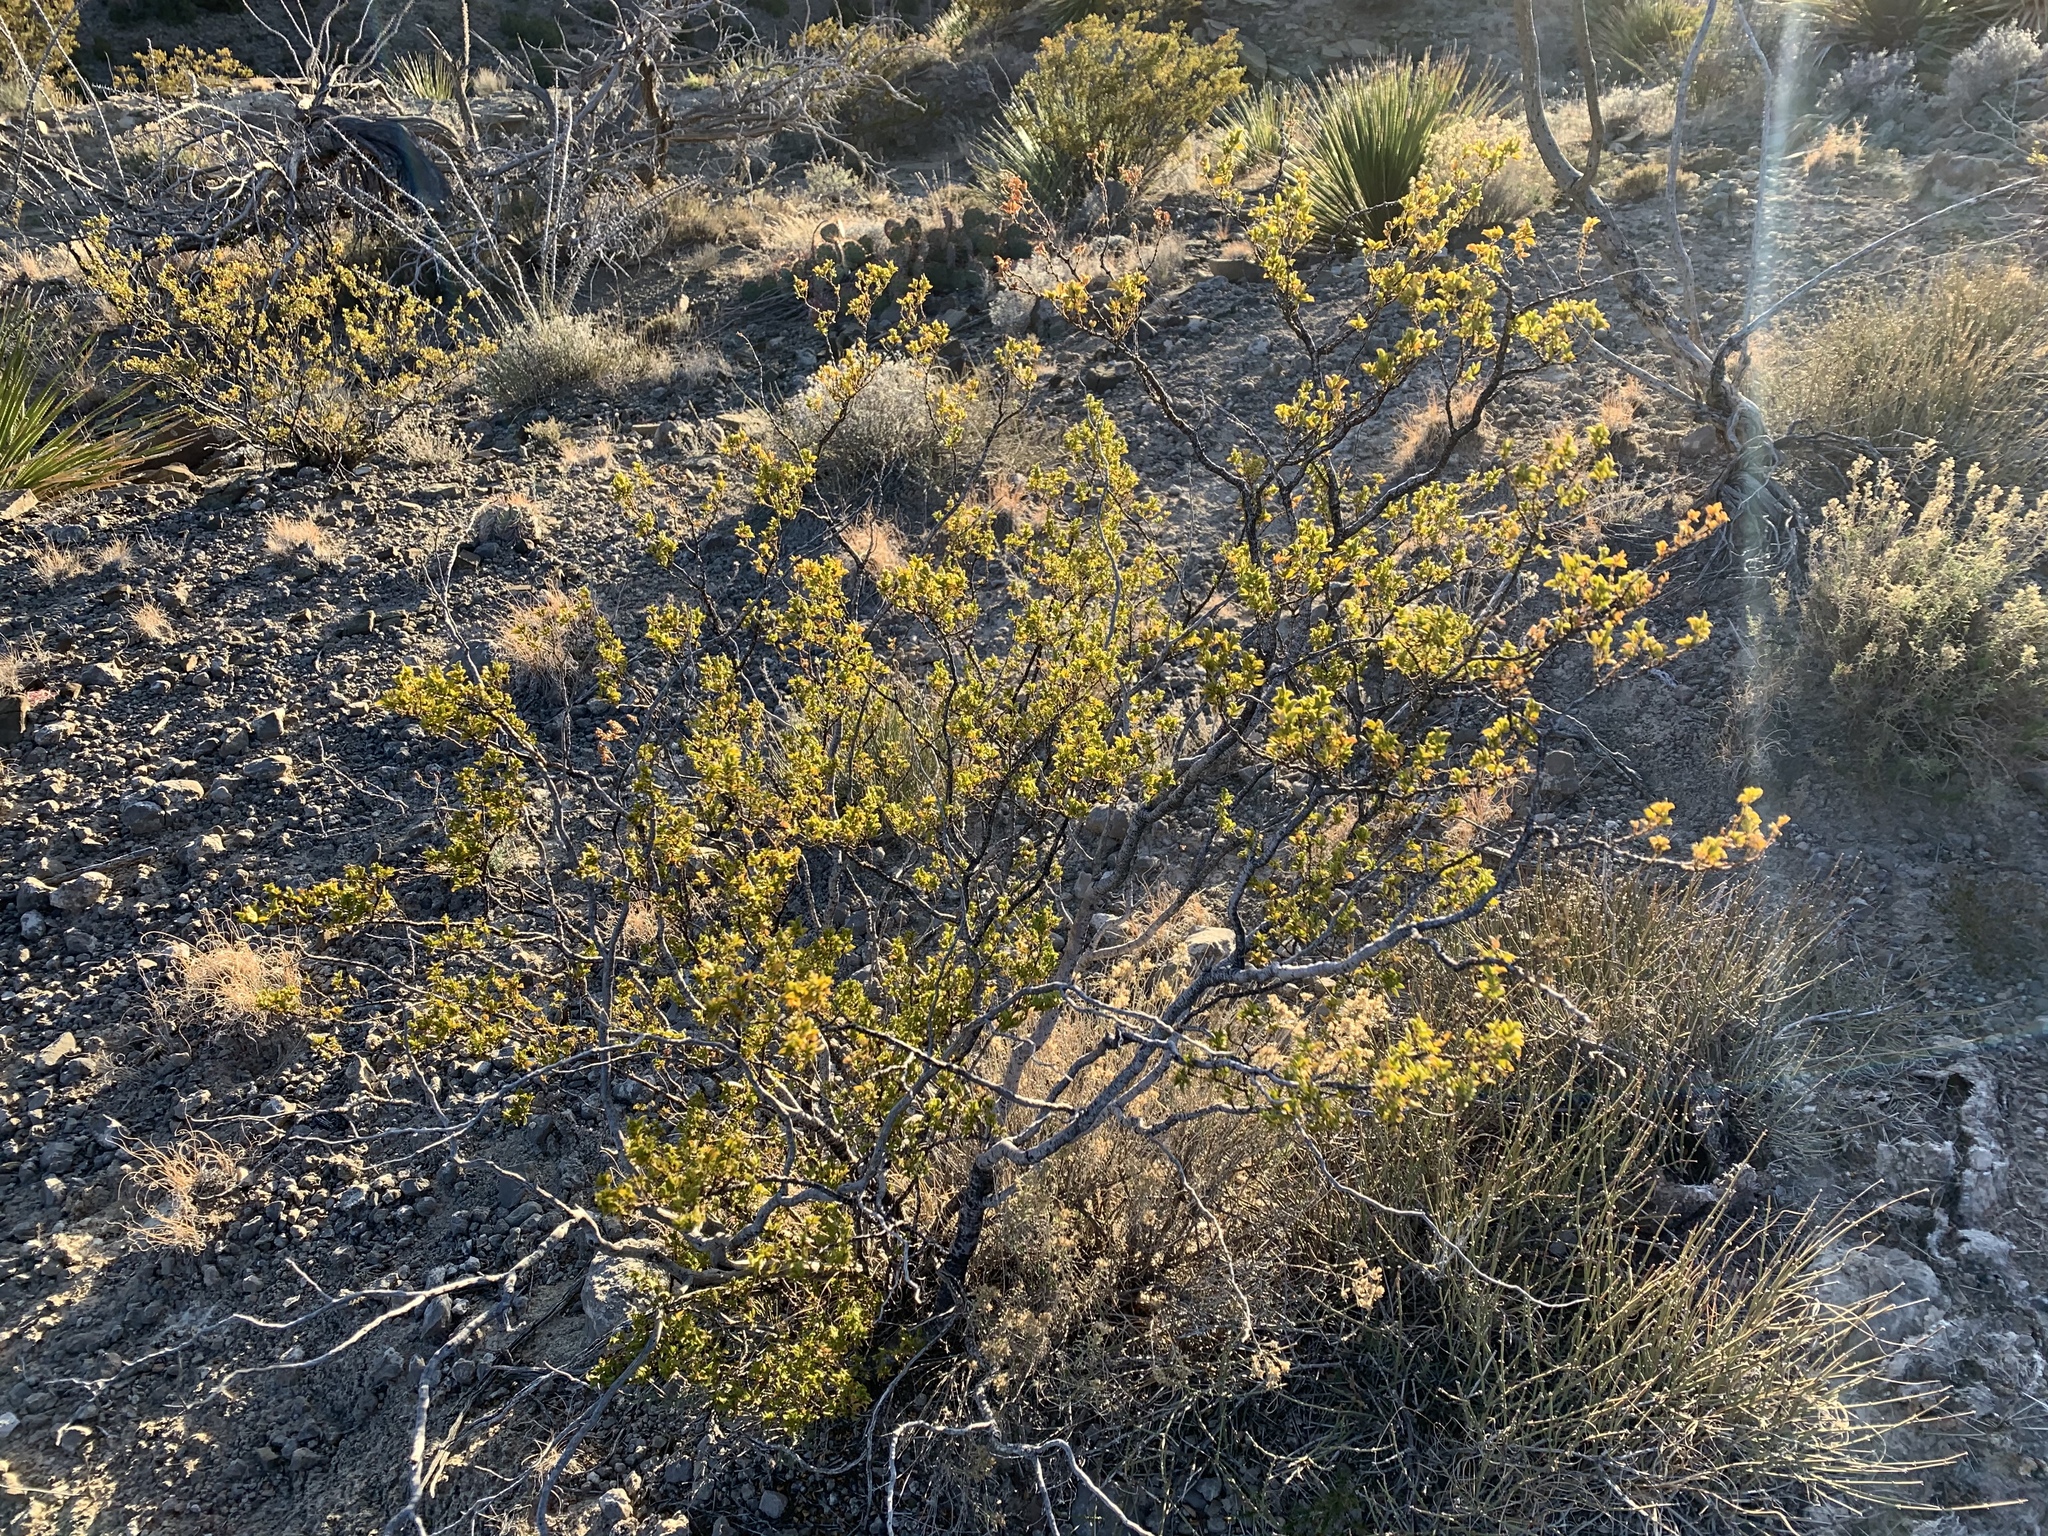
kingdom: Plantae
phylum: Tracheophyta
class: Magnoliopsida
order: Zygophyllales
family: Zygophyllaceae
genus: Larrea
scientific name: Larrea tridentata
